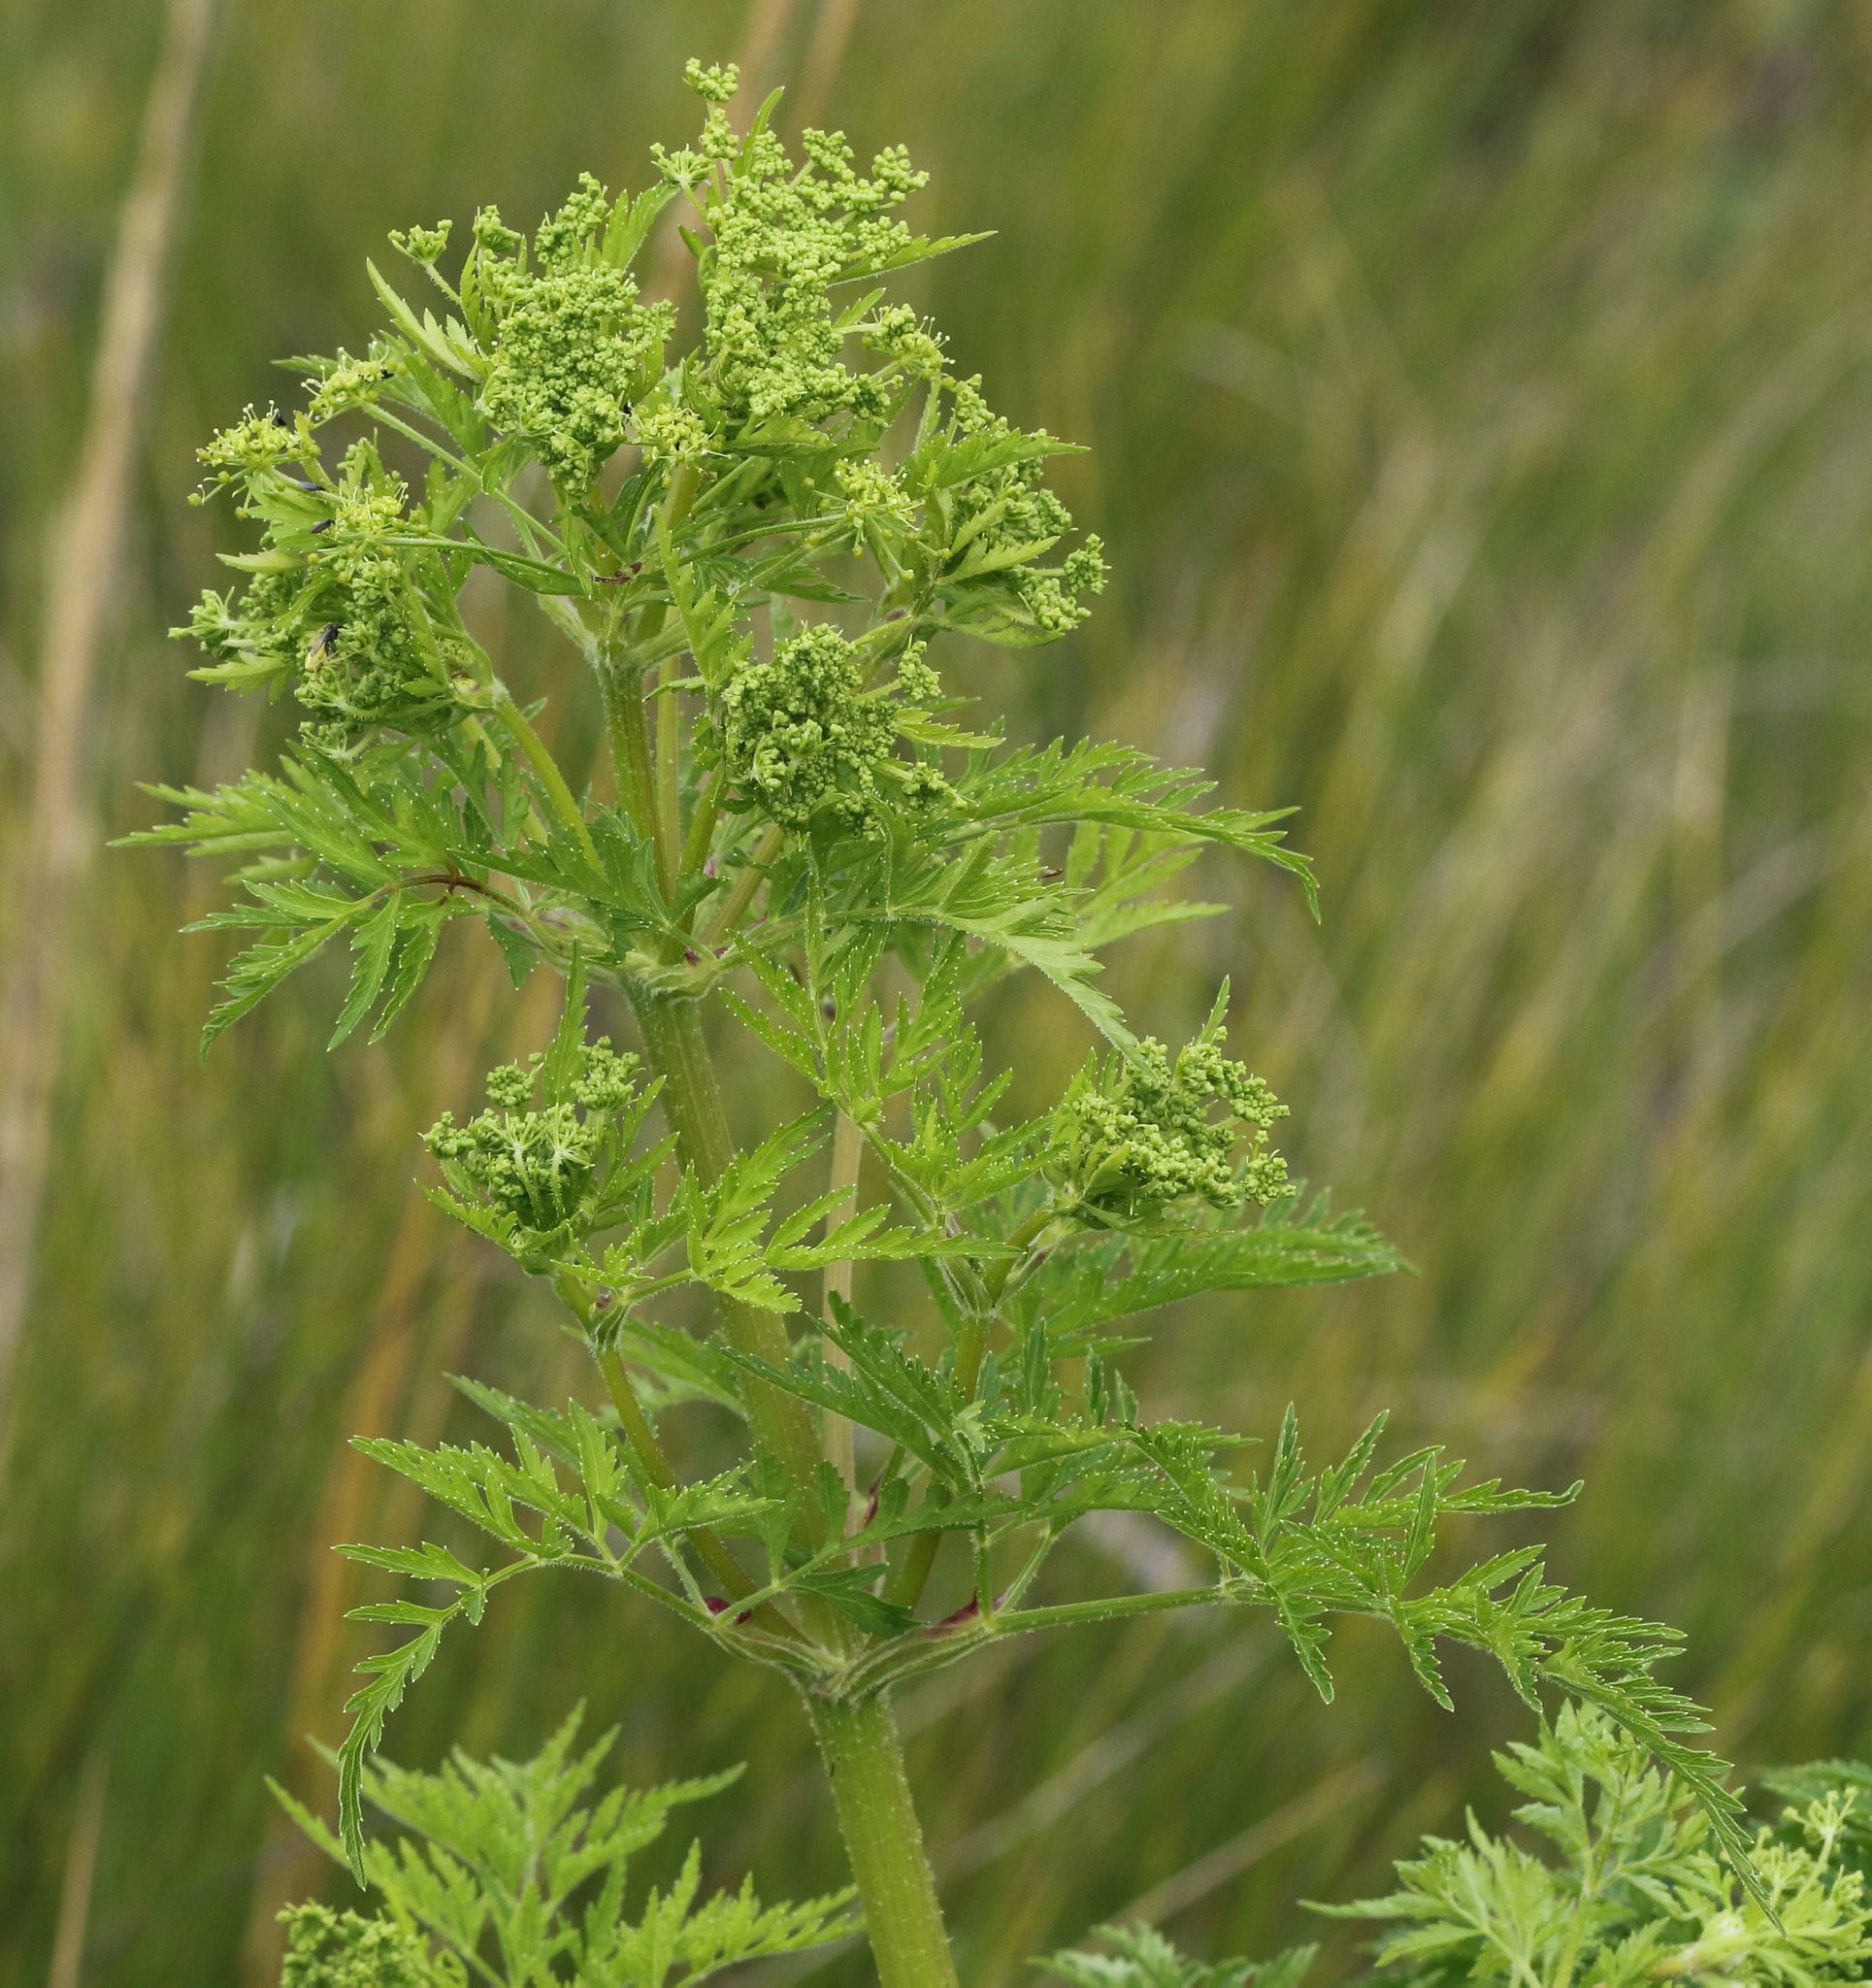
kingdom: Plantae
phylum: Tracheophyta
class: Magnoliopsida
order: Apiales
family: Apiaceae
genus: Afroligusticum
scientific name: Afroligusticum thodei
